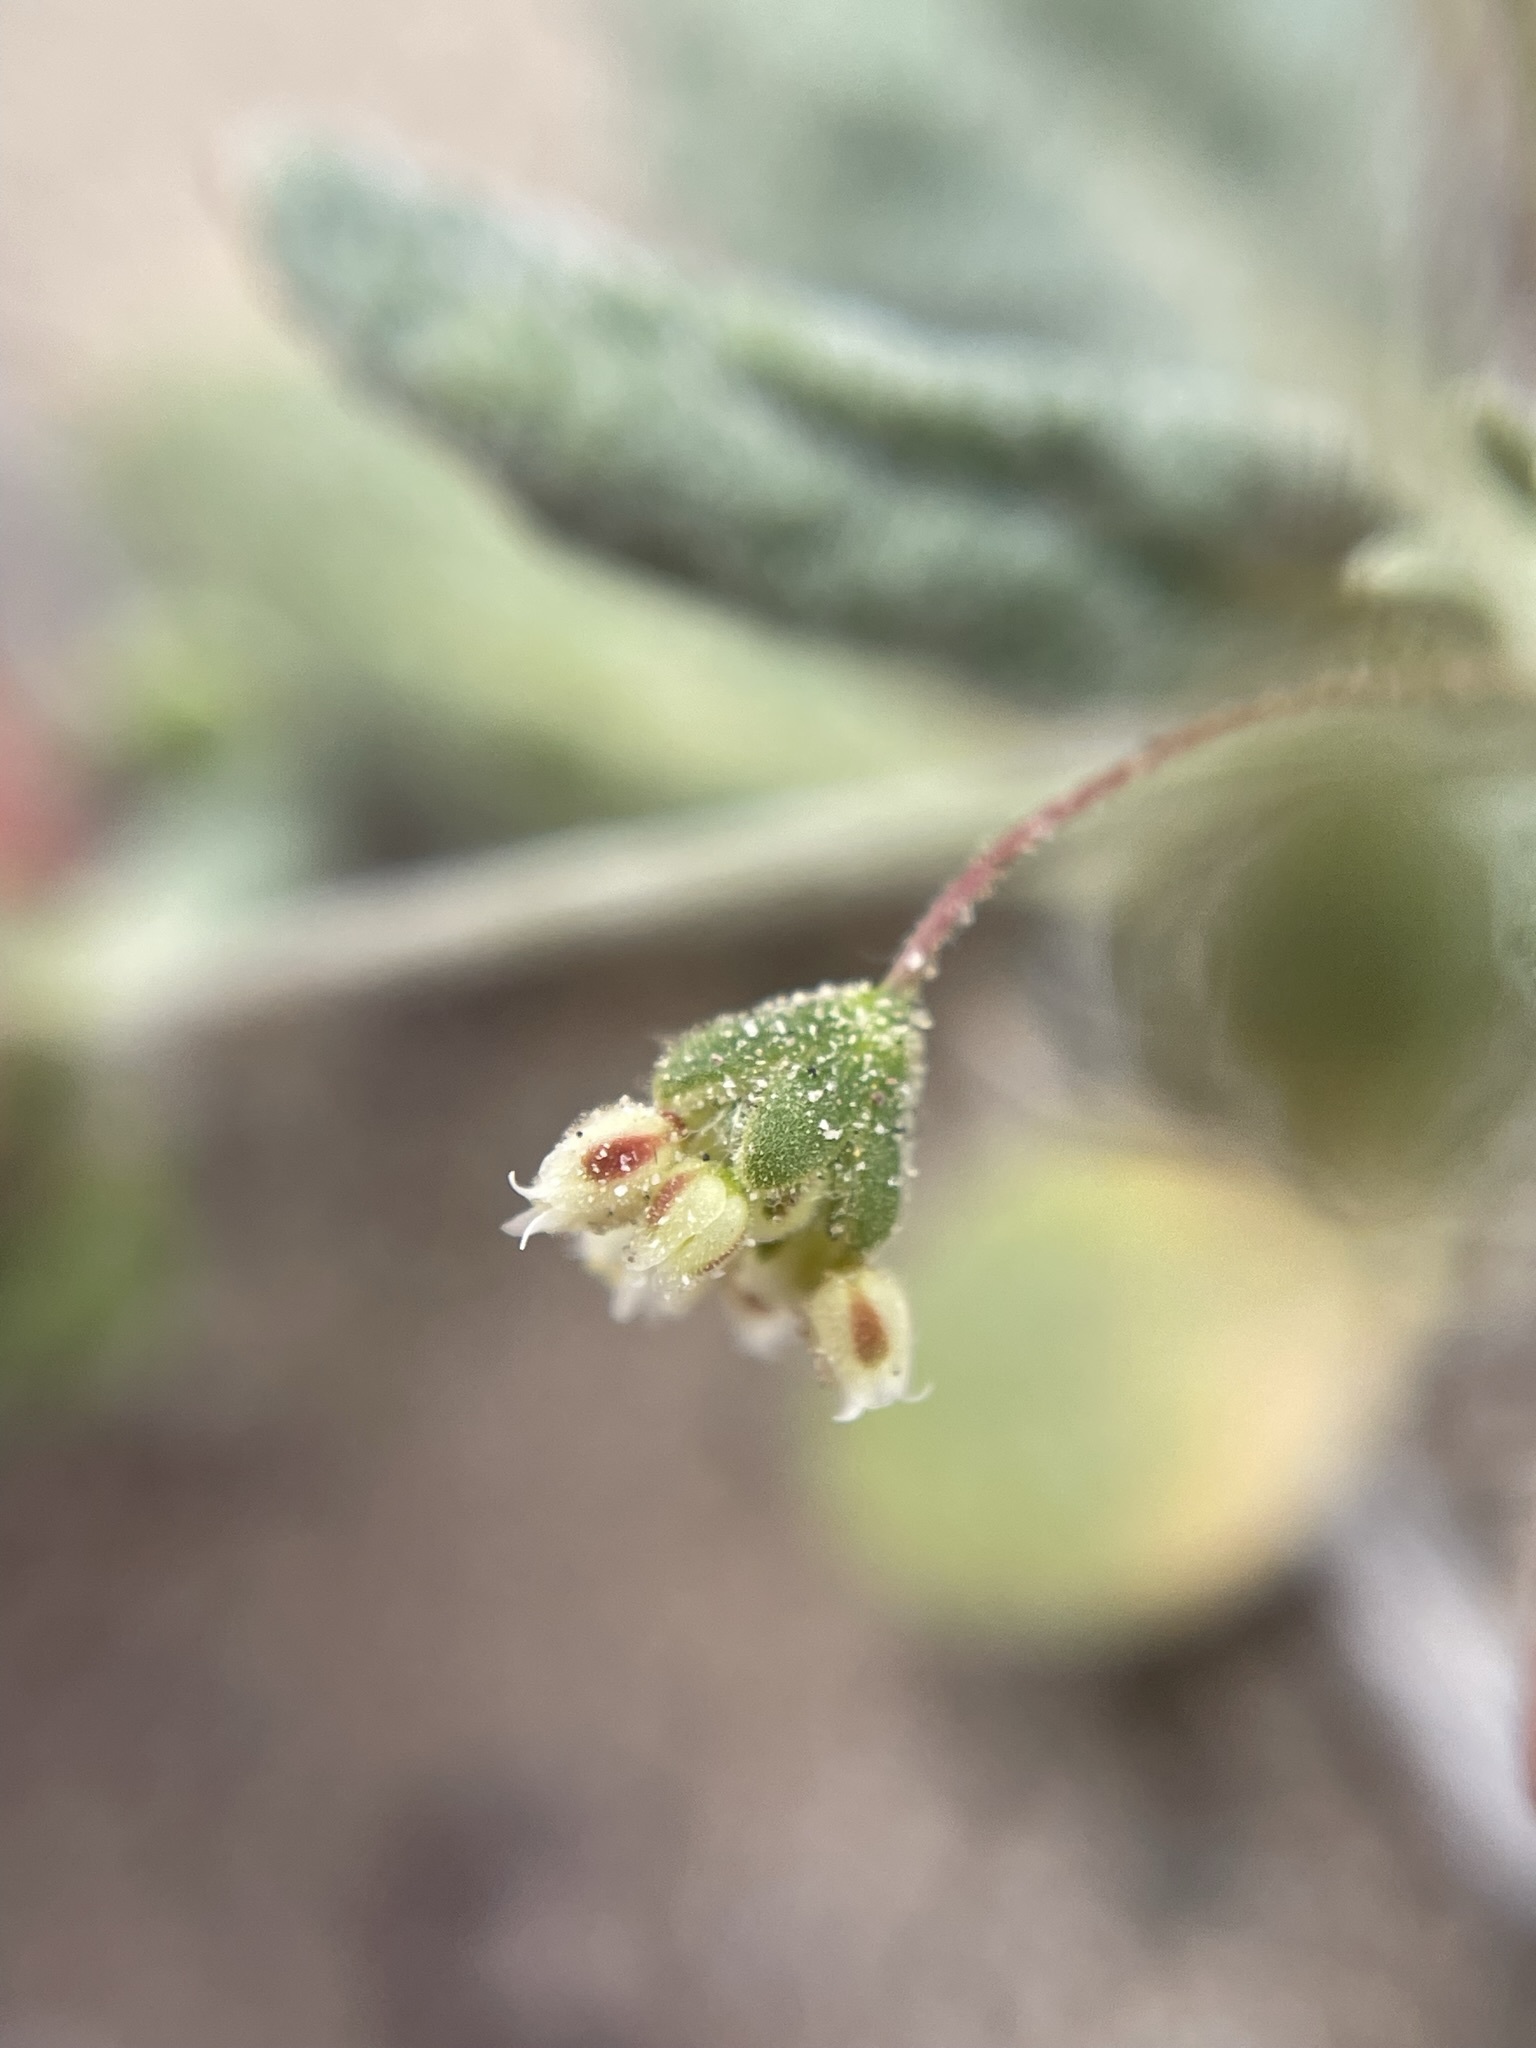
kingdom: Plantae
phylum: Tracheophyta
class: Magnoliopsida
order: Caryophyllales
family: Polygonaceae
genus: Eriogonum
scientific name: Eriogonum maculatum
